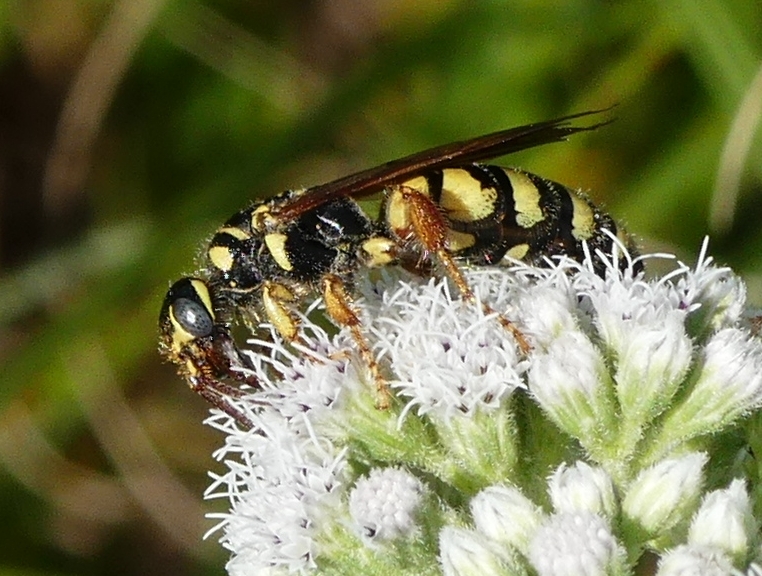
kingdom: Animalia
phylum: Arthropoda
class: Insecta
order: Hymenoptera
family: Tiphiidae
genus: Myzinum
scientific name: Myzinum quinquecinctum
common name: Five-banded thynnid wasp
